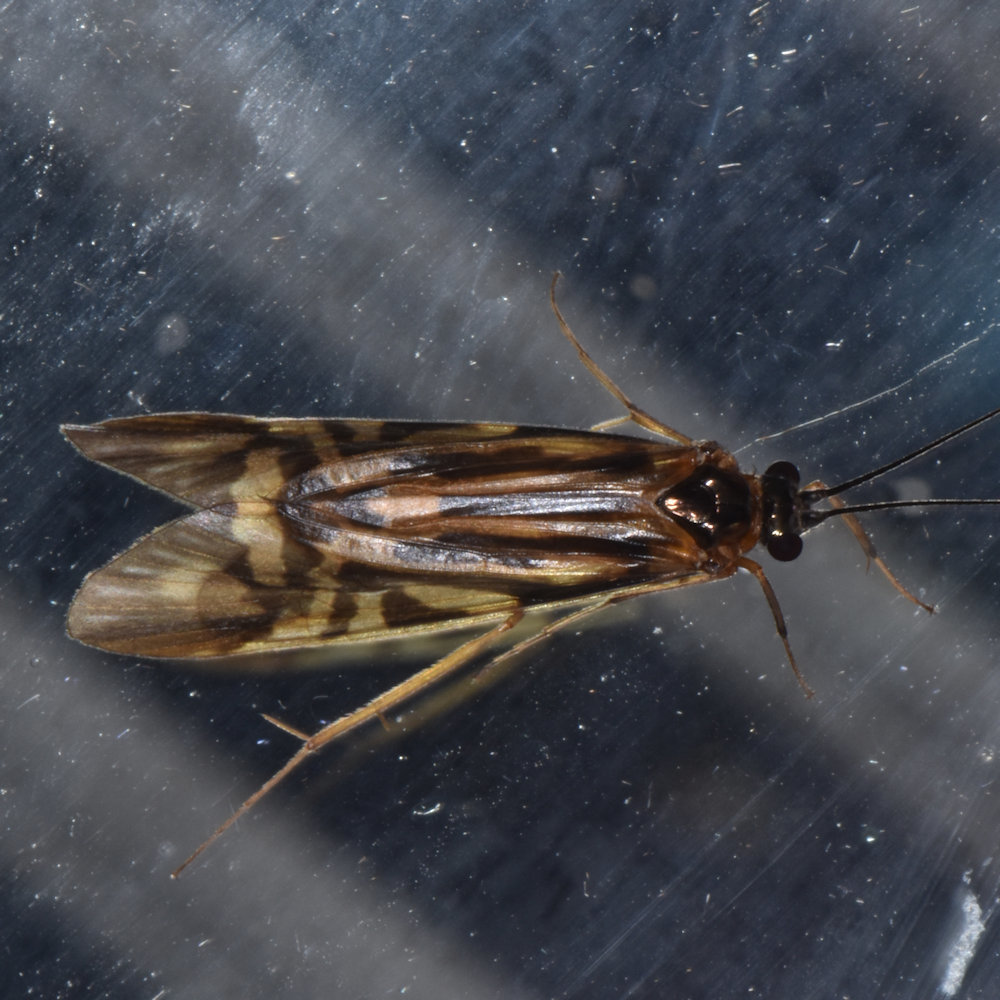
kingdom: Animalia
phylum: Arthropoda
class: Insecta
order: Trichoptera
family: Hydropsychidae
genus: Macrostemum
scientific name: Macrostemum zebratum
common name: Zebra caddisfly
